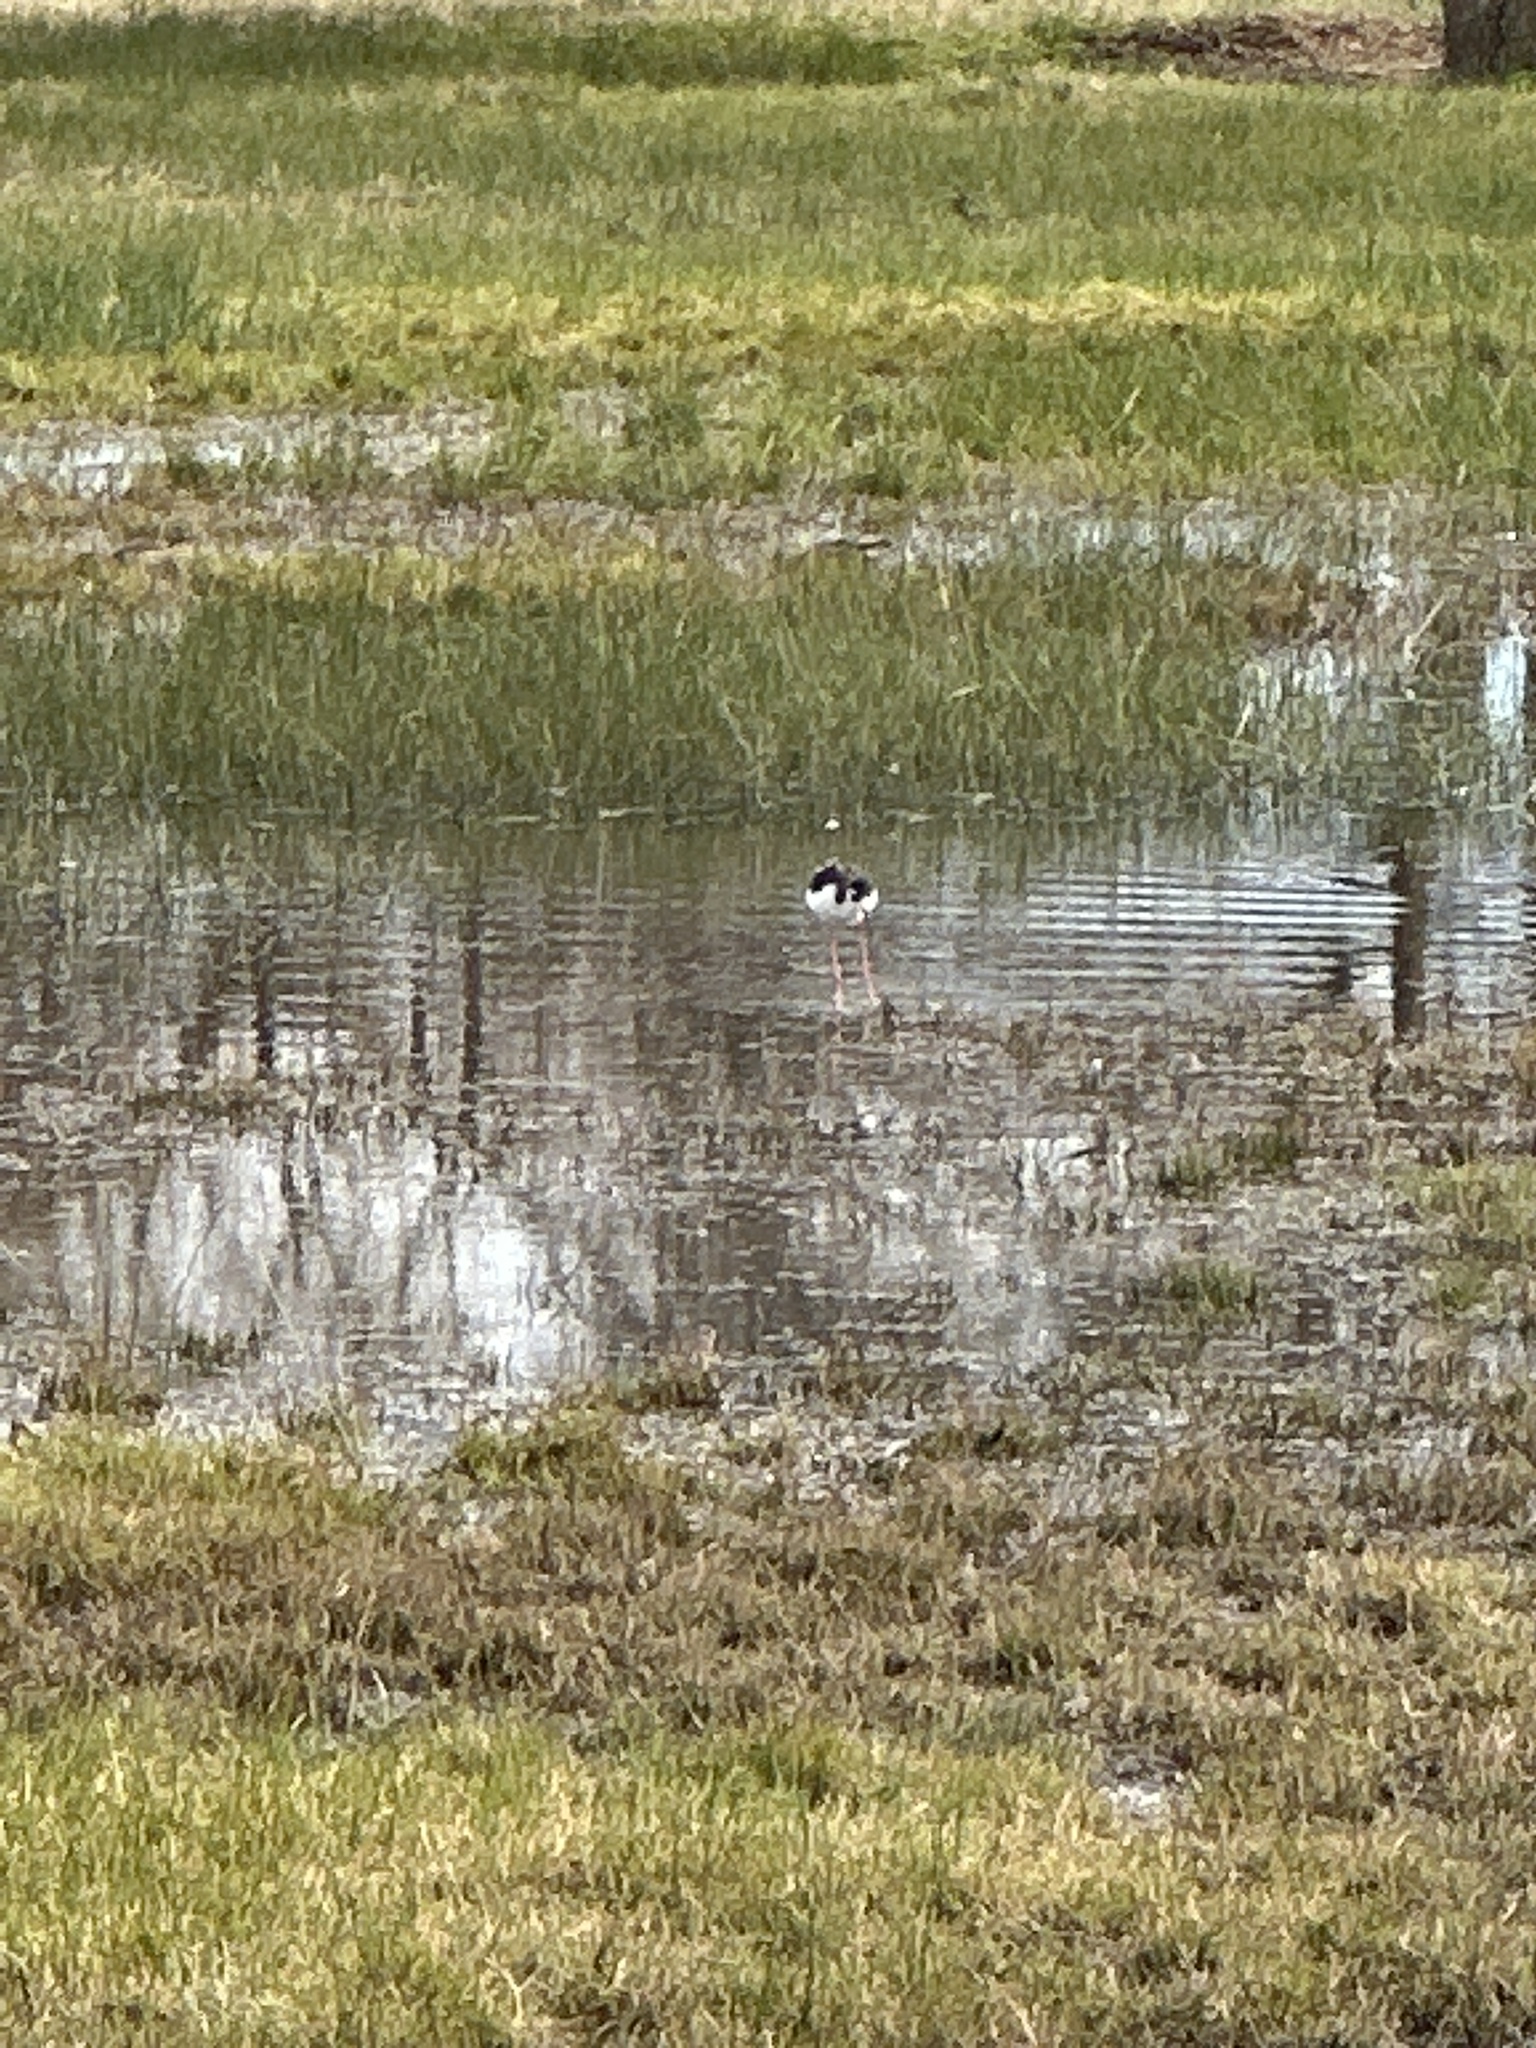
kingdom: Animalia
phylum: Chordata
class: Aves
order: Charadriiformes
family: Recurvirostridae
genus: Himantopus
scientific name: Himantopus mexicanus
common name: Black-necked stilt
